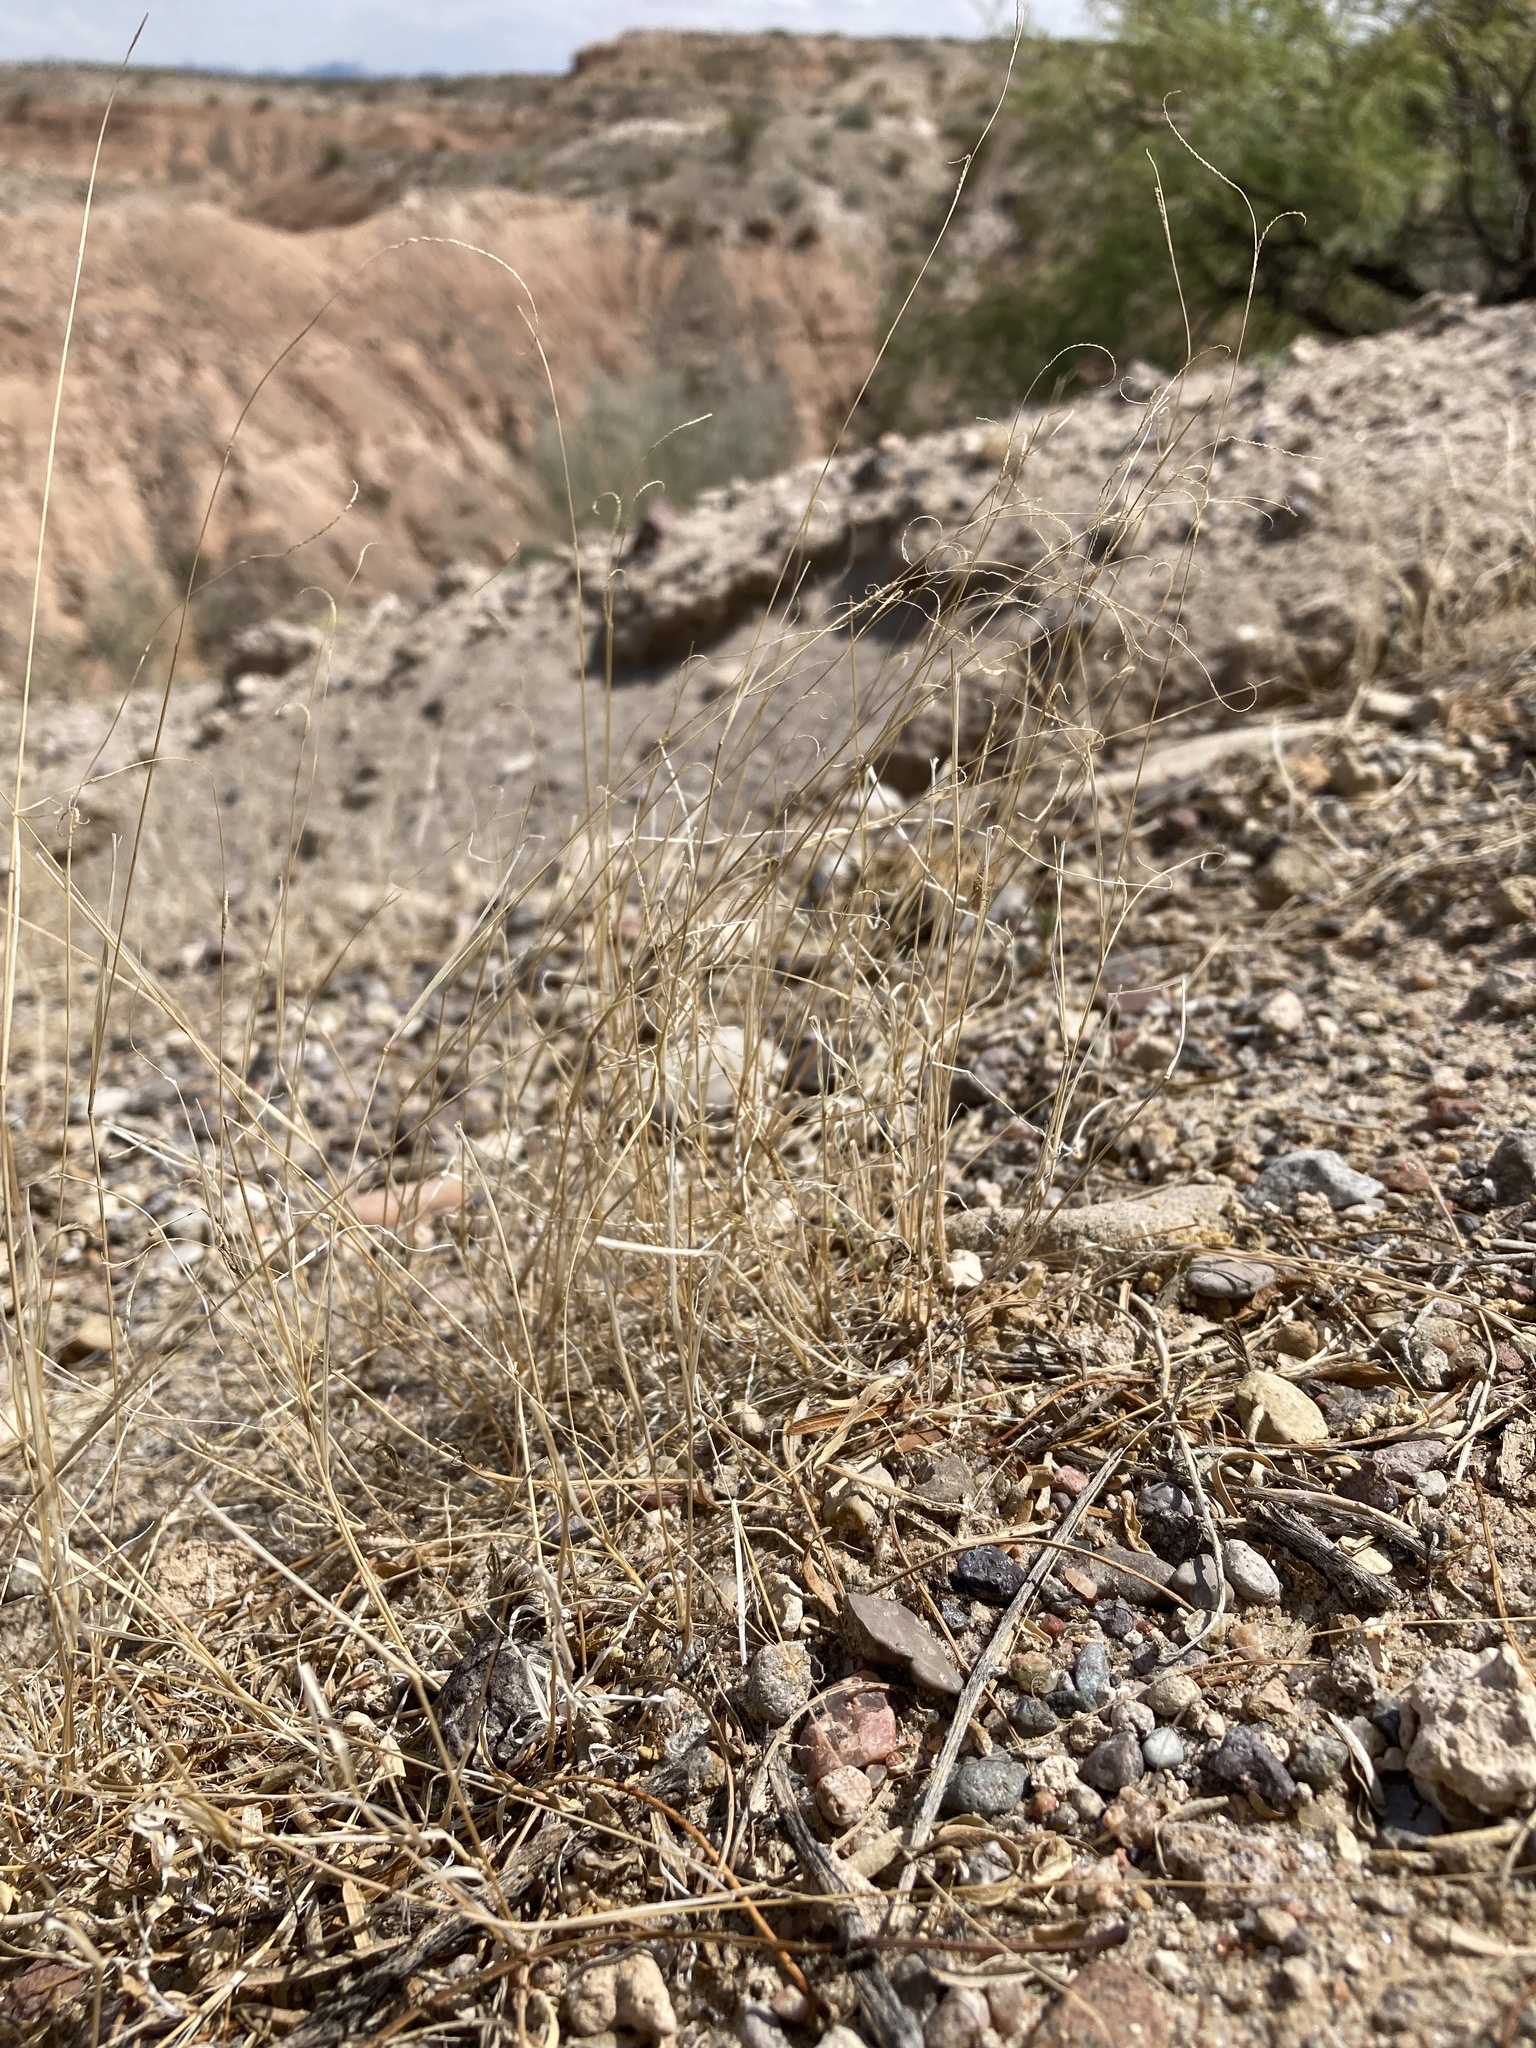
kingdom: Plantae
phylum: Tracheophyta
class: Liliopsida
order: Poales
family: Poaceae
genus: Bouteloua
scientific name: Bouteloua barbata
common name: Six-weeks grama
